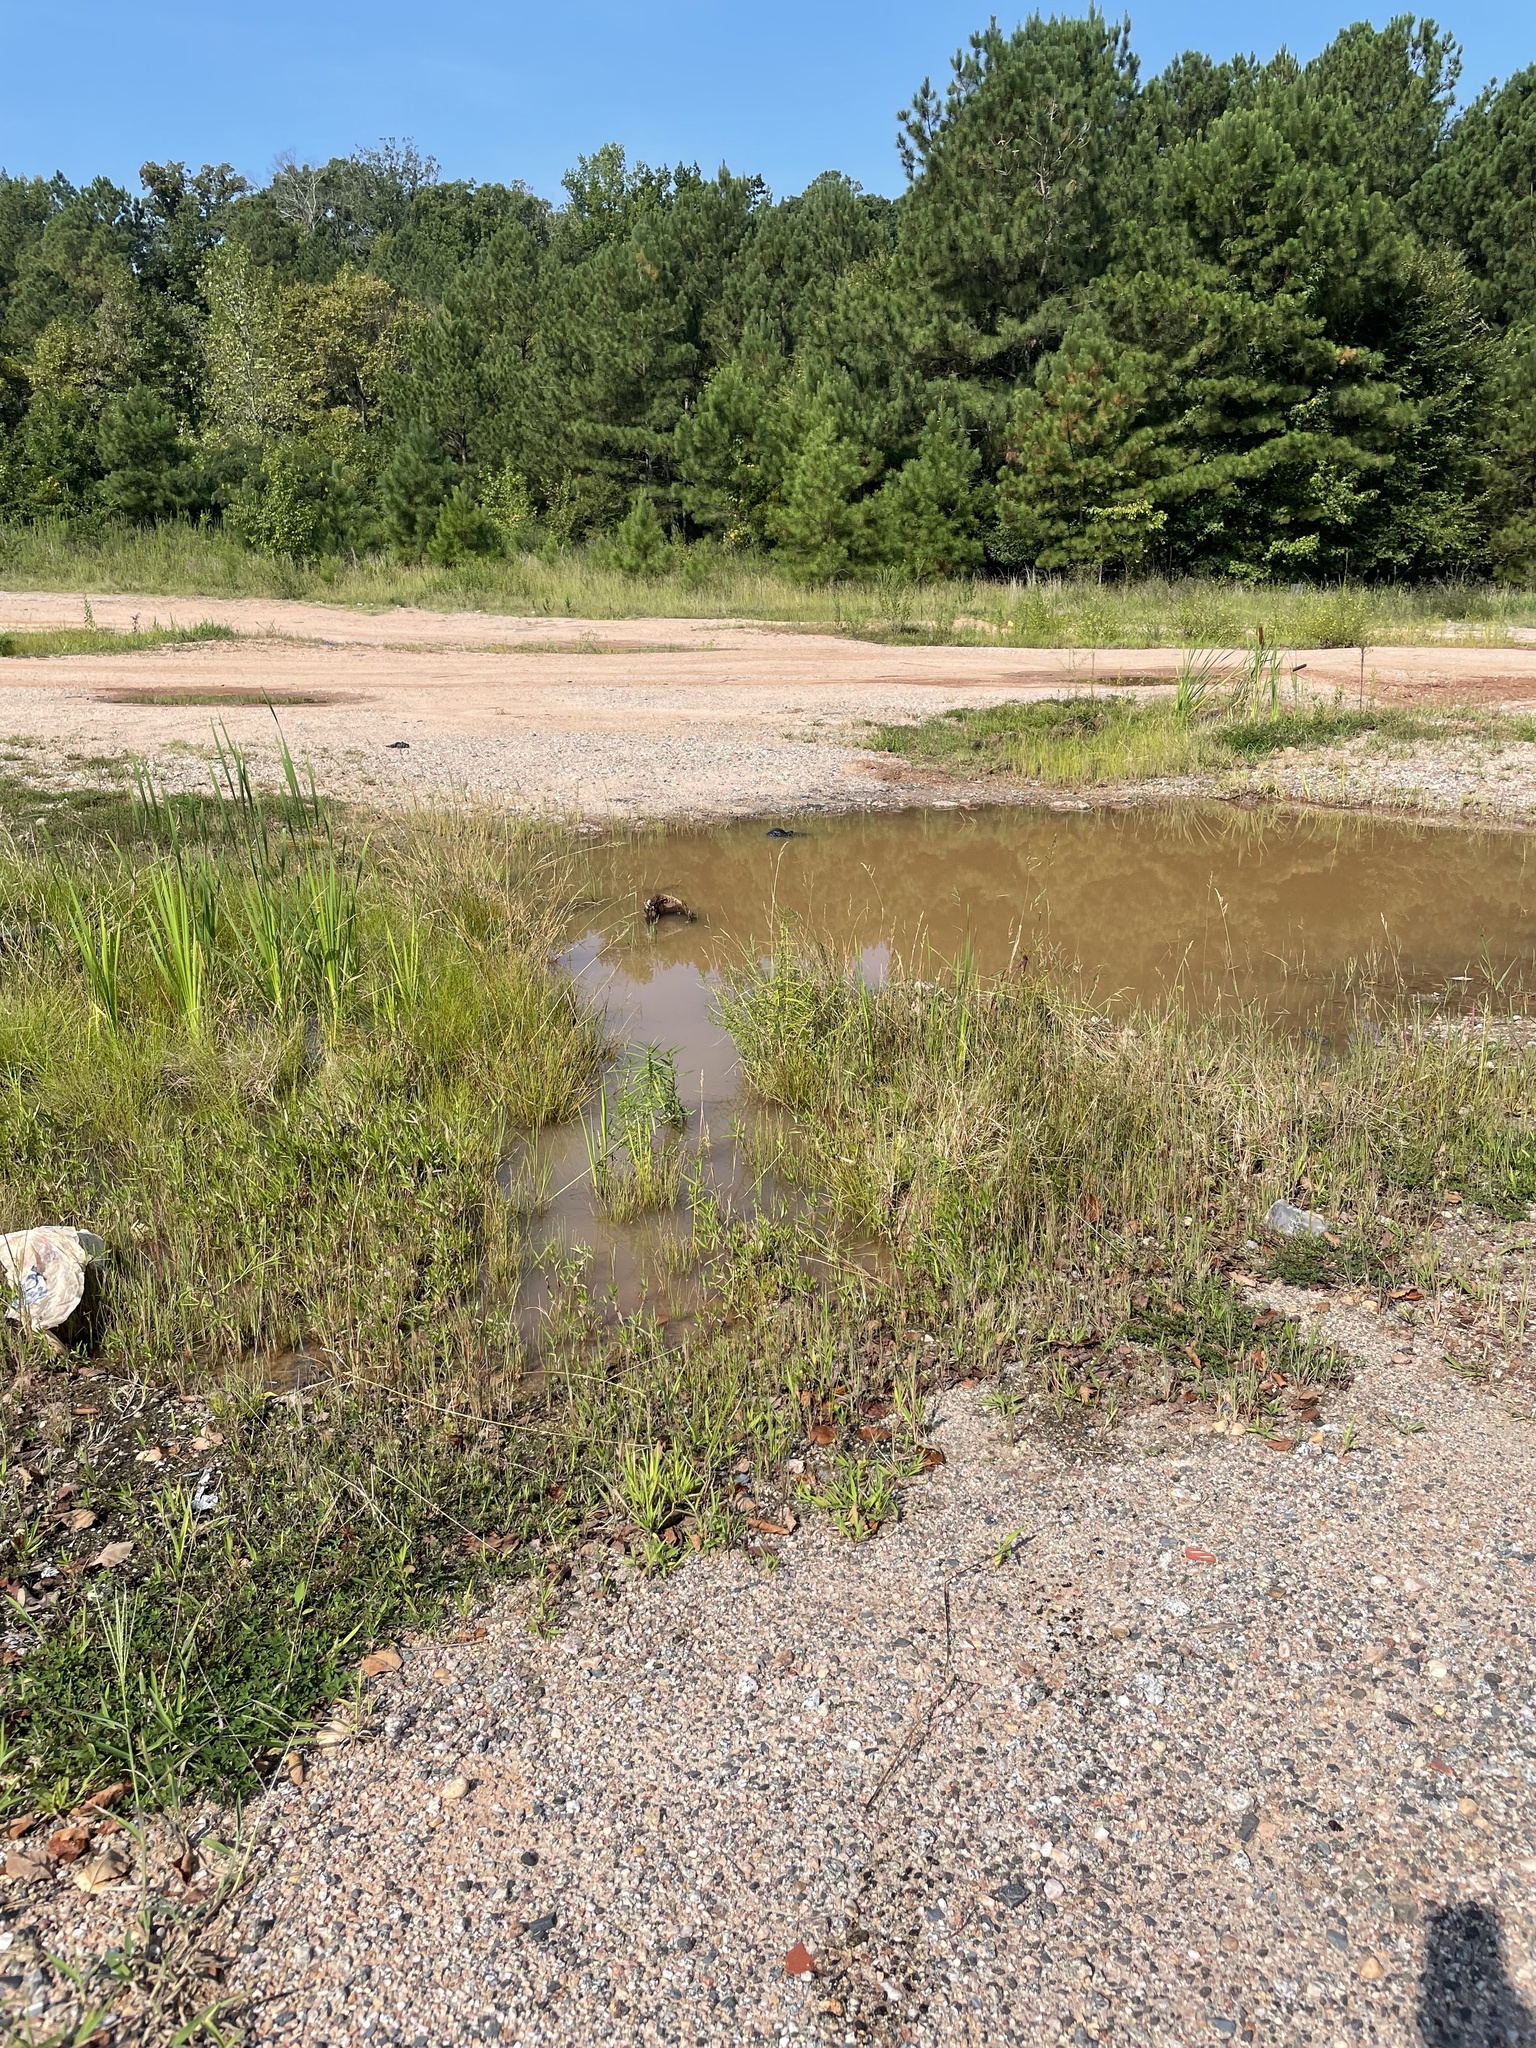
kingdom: Plantae
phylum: Tracheophyta
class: Magnoliopsida
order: Asterales
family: Asteraceae
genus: Eclipta
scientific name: Eclipta prostrata
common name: False daisy
